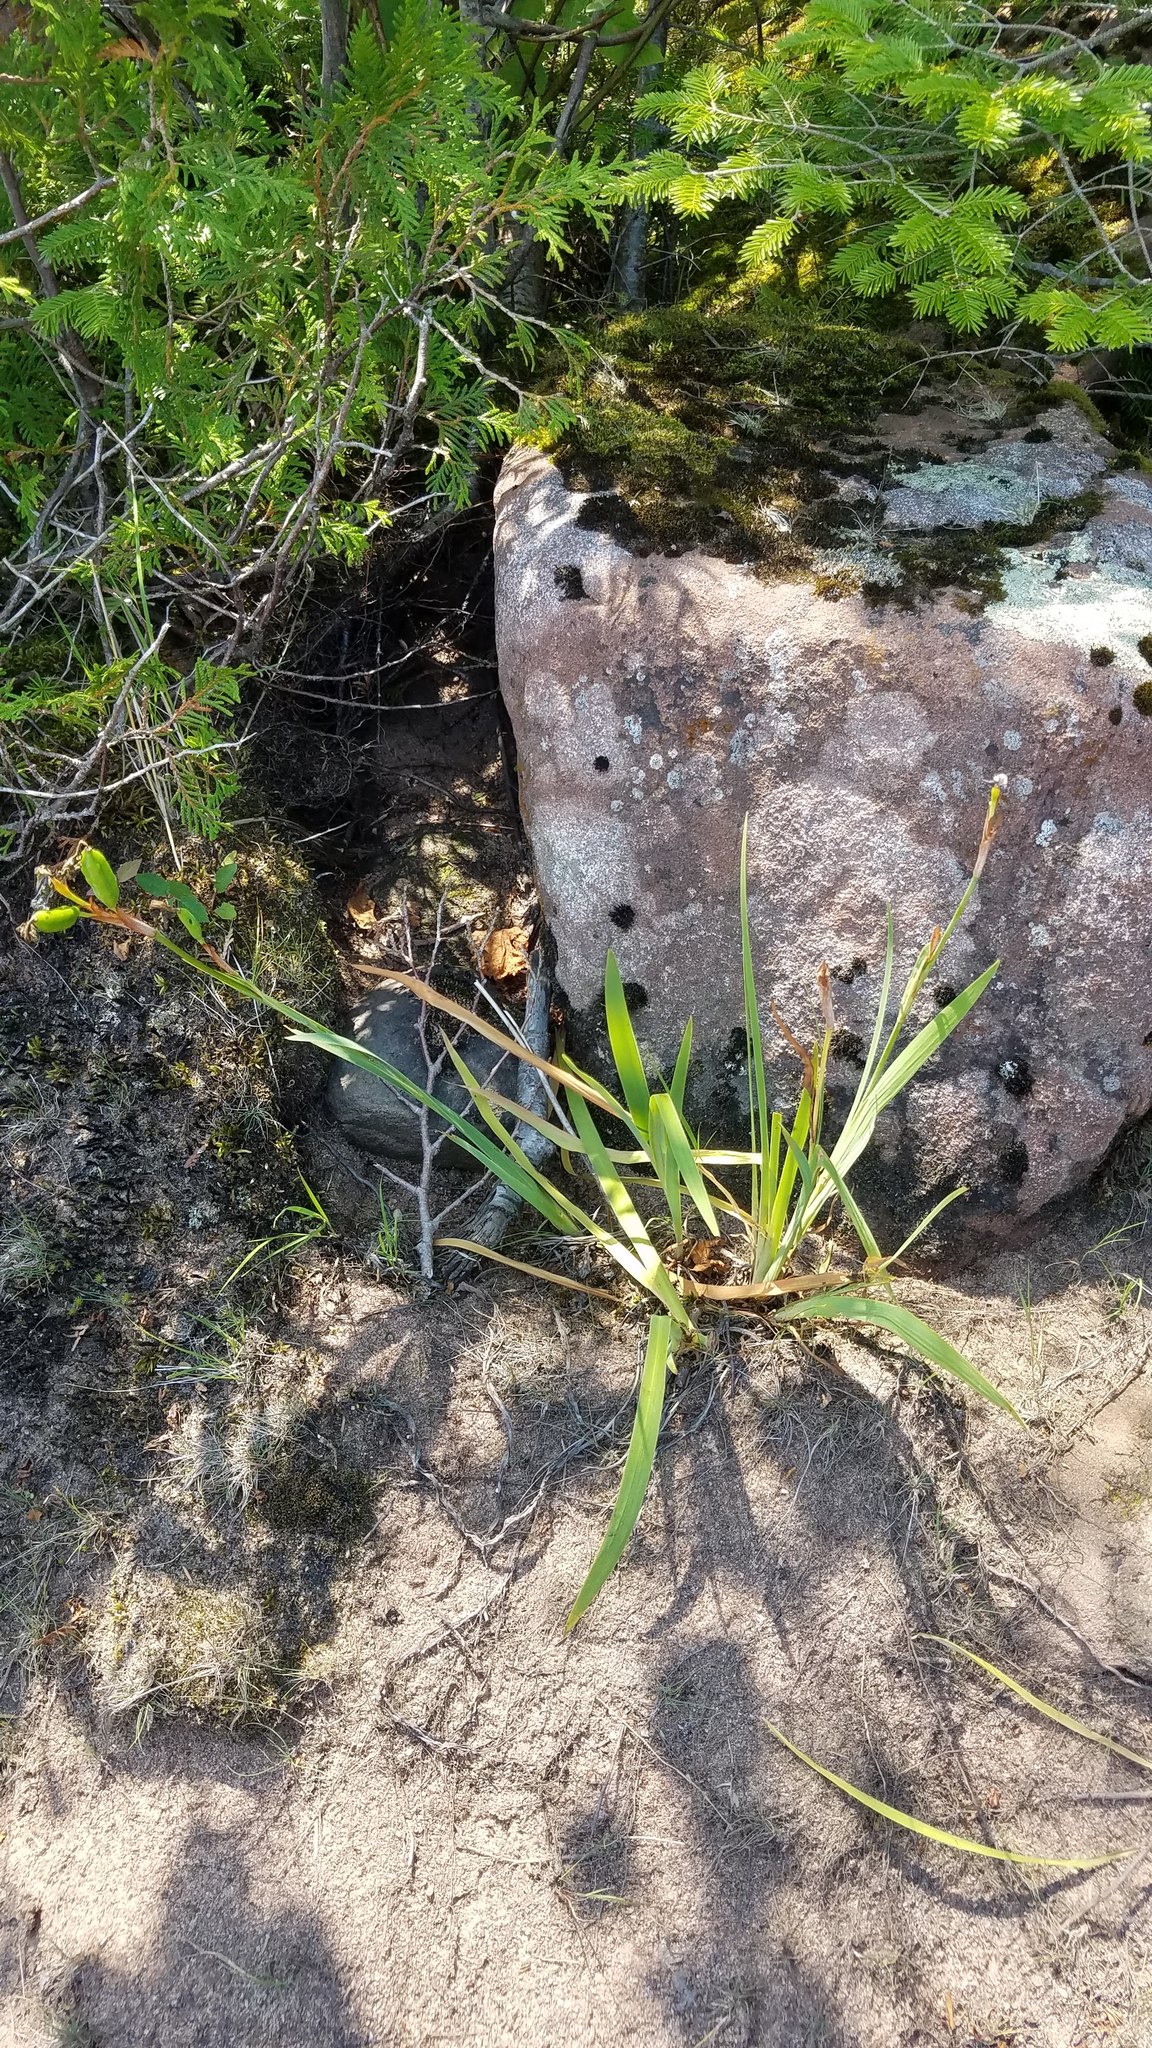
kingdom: Plantae
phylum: Tracheophyta
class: Liliopsida
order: Asparagales
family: Iridaceae
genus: Iris
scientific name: Iris versicolor
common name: Purple iris
